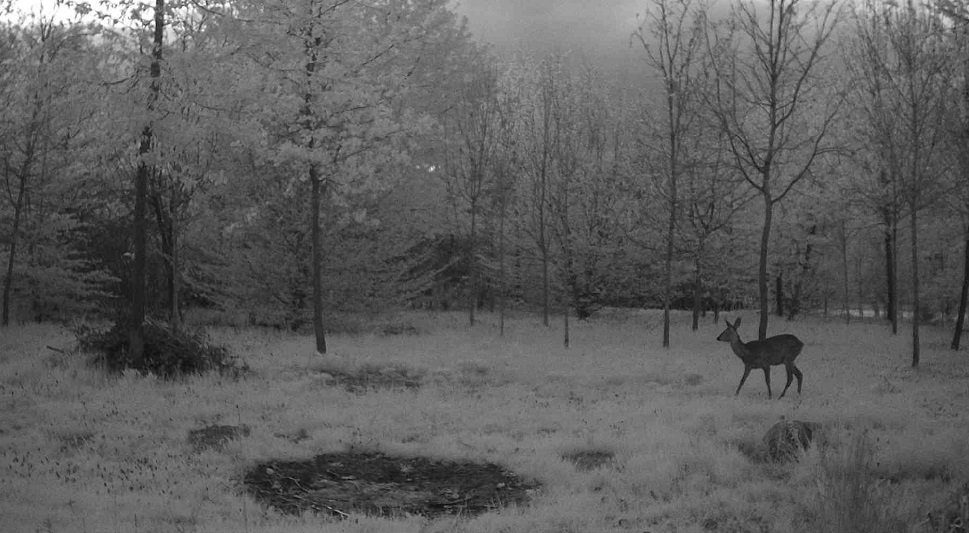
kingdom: Animalia
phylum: Chordata
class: Mammalia
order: Artiodactyla
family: Cervidae
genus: Capreolus
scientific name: Capreolus capreolus
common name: Western roe deer
